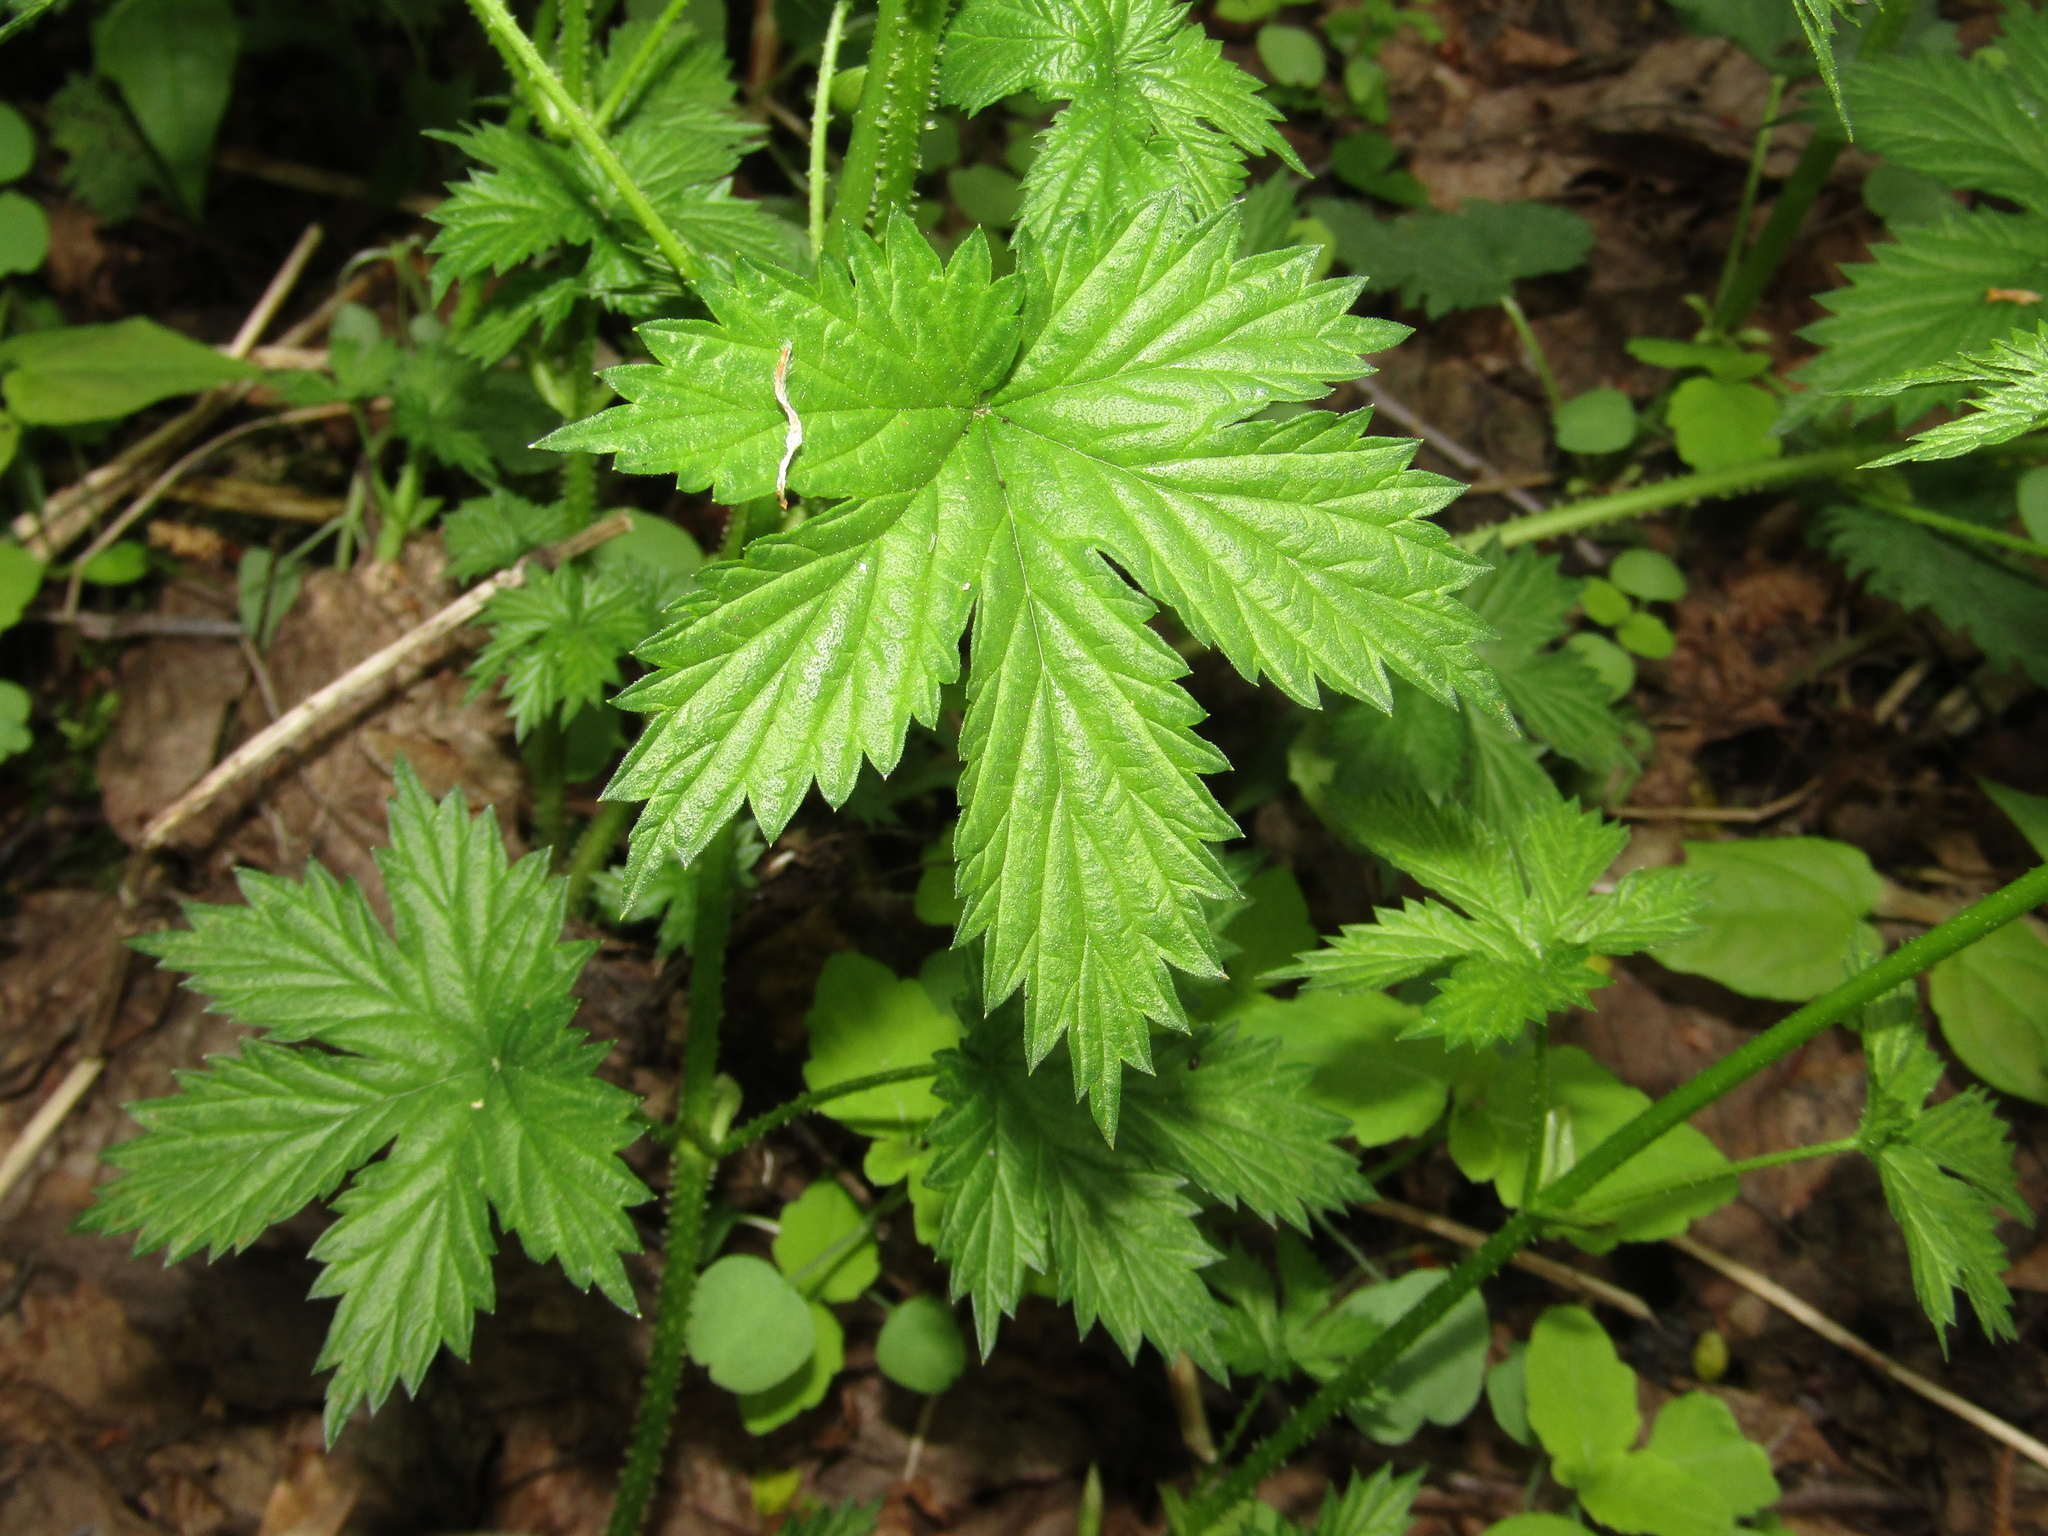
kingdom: Plantae
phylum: Tracheophyta
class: Magnoliopsida
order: Rosales
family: Cannabaceae
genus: Humulus
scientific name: Humulus lupulus
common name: Hop
